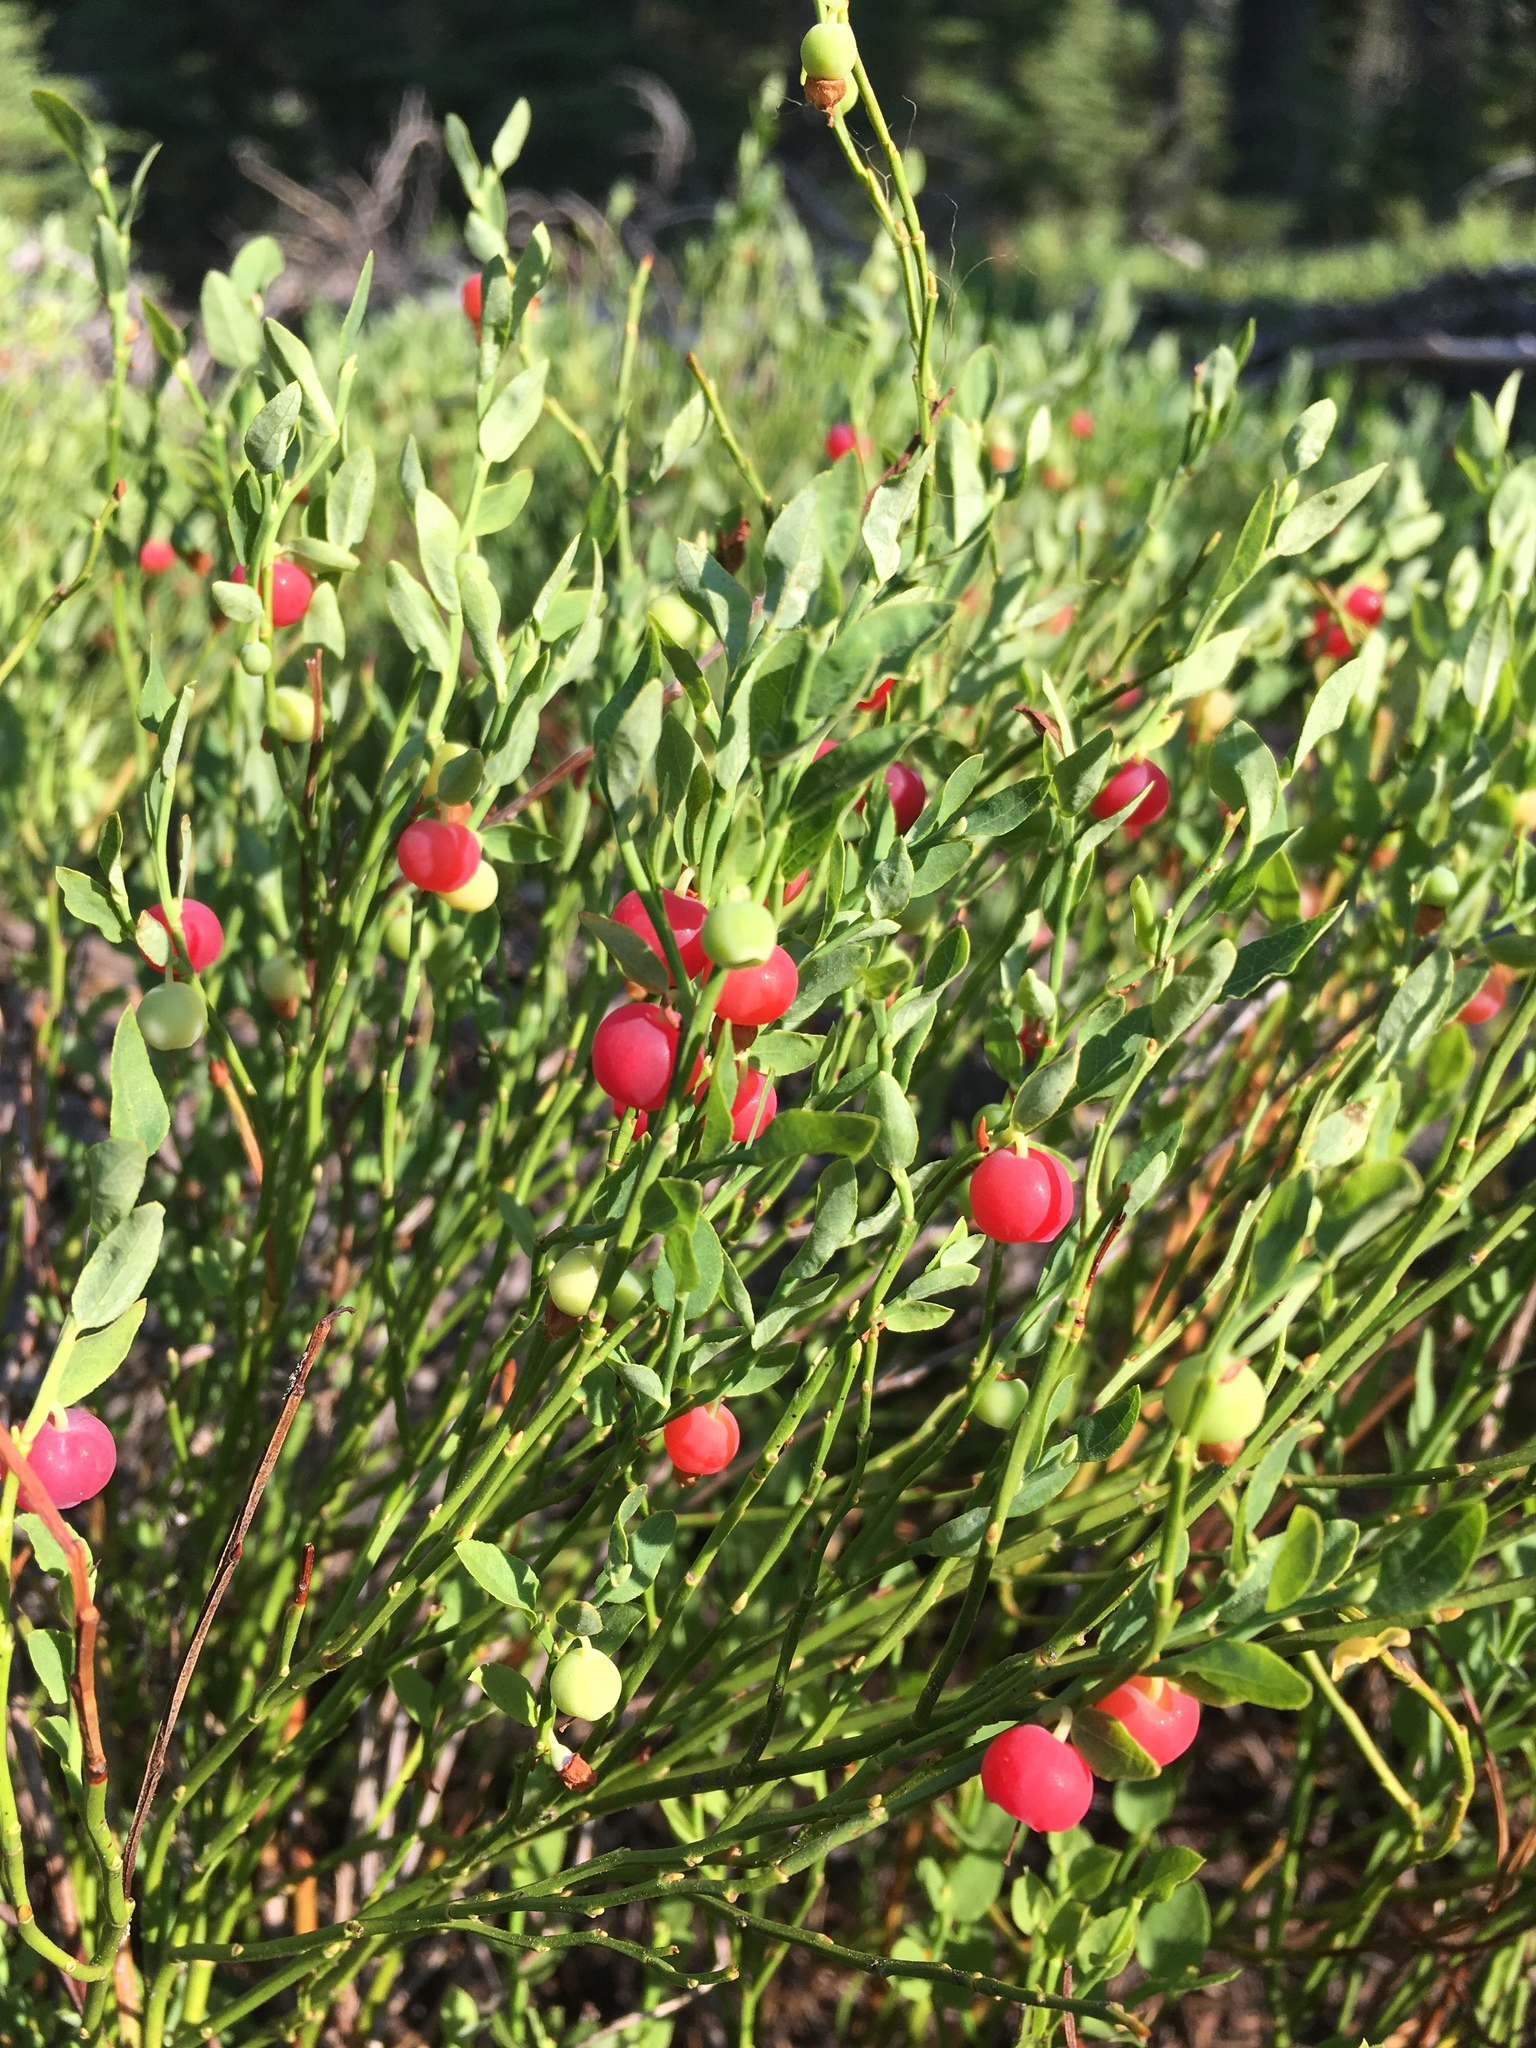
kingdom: Plantae
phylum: Tracheophyta
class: Magnoliopsida
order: Ericales
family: Ericaceae
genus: Vaccinium
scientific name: Vaccinium scoparium
